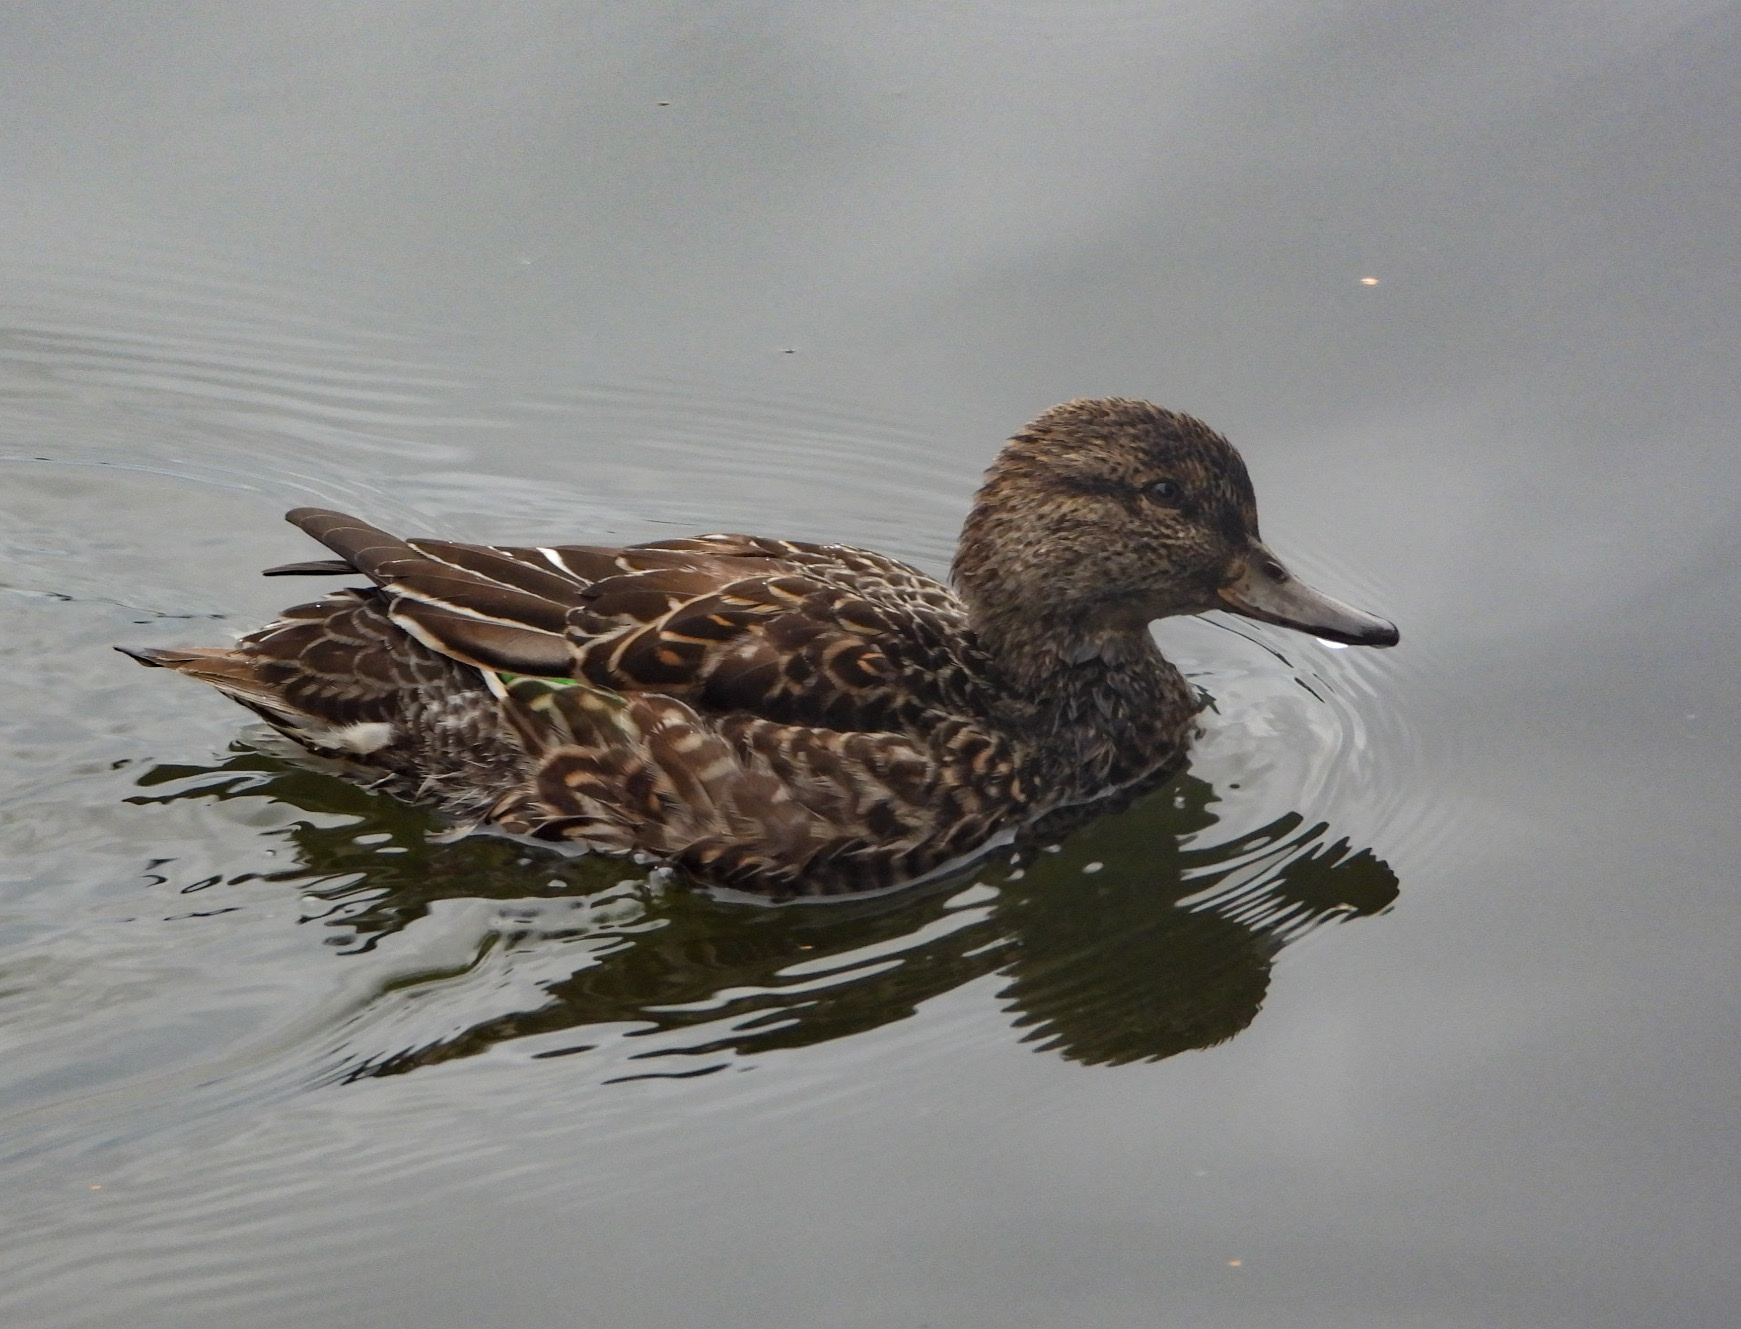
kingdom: Animalia
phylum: Chordata
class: Aves
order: Anseriformes
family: Anatidae
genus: Anas
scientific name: Anas crecca
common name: Eurasian teal
